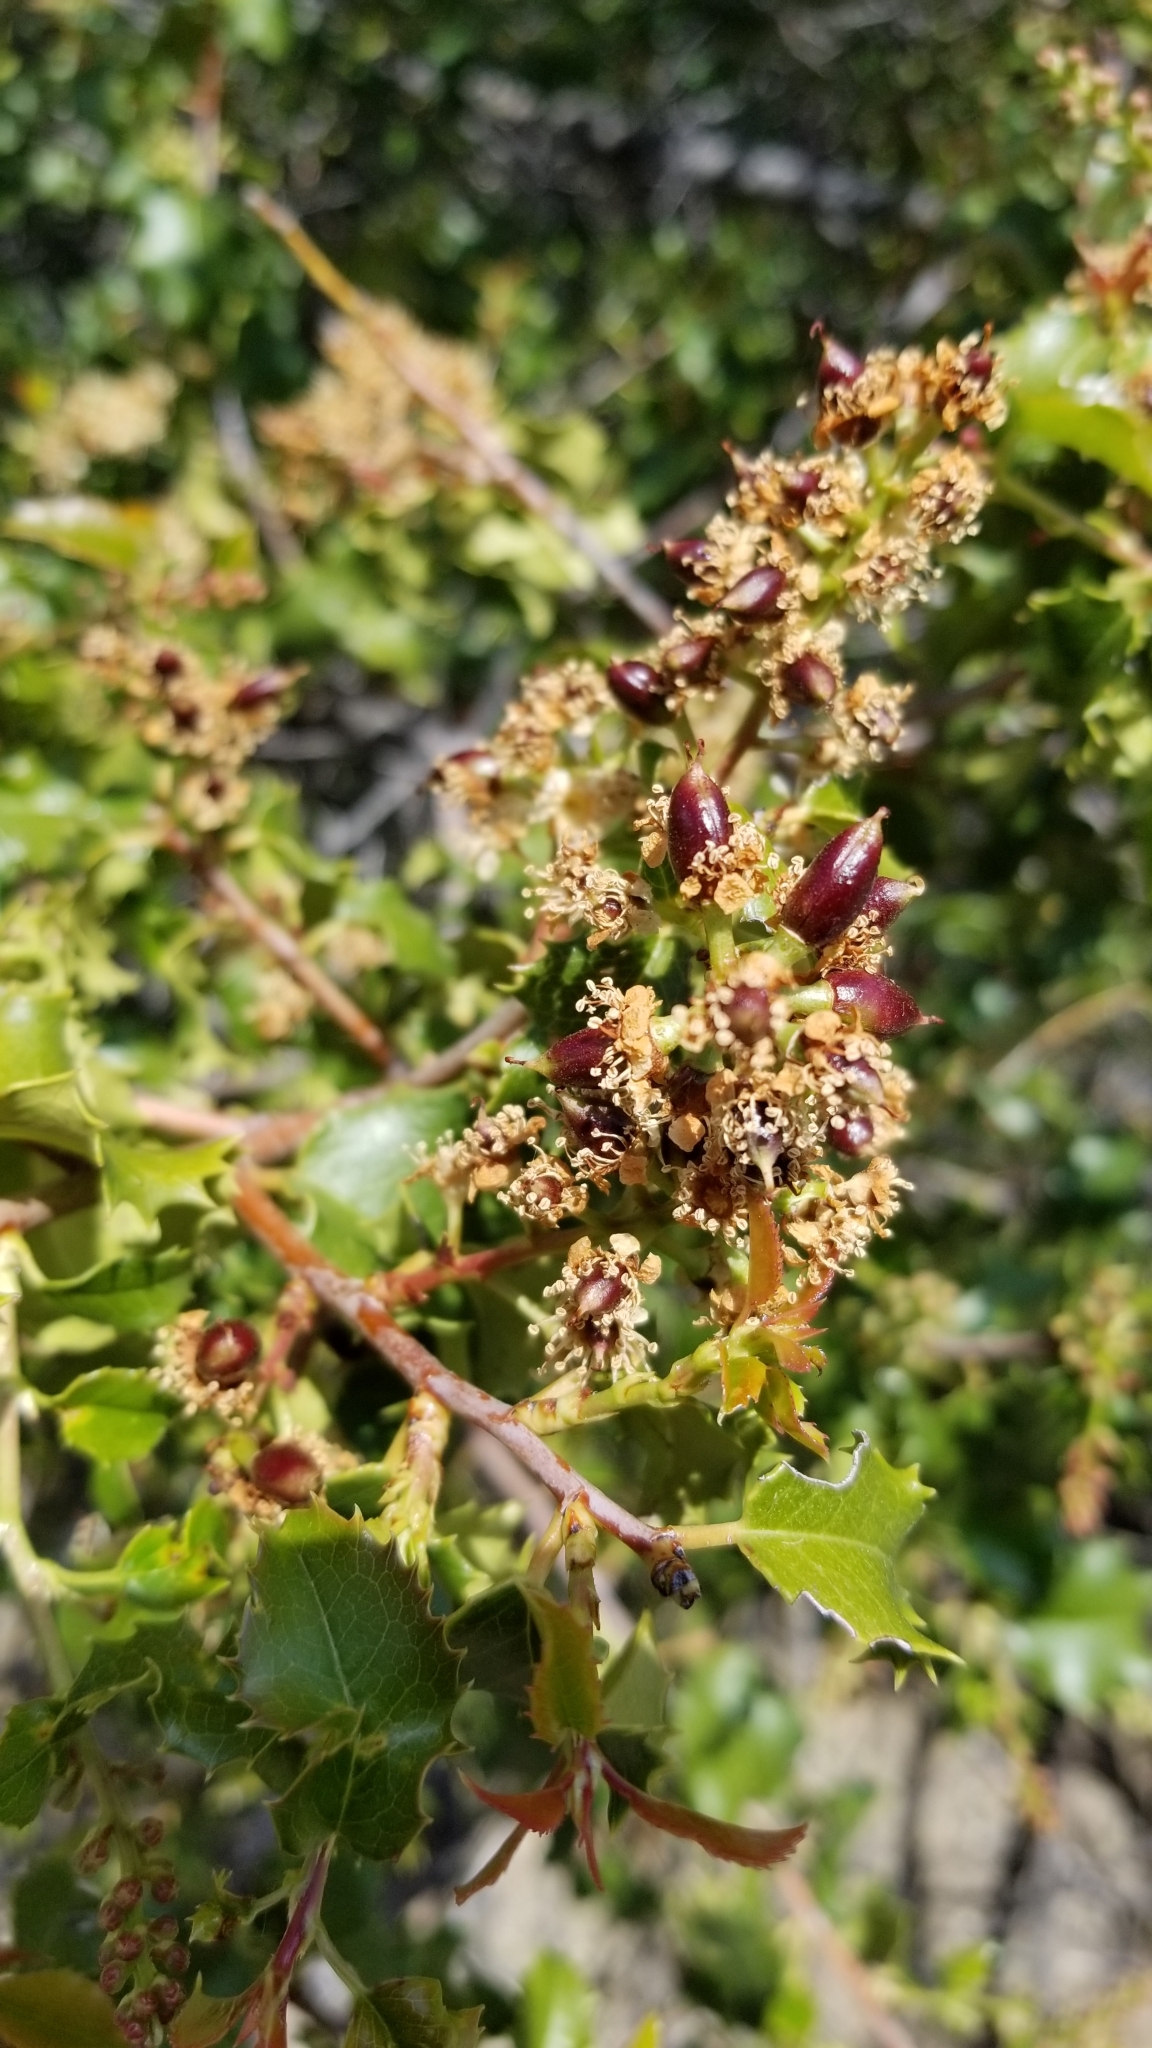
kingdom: Plantae
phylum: Tracheophyta
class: Magnoliopsida
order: Rosales
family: Rosaceae
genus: Prunus
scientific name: Prunus ilicifolia
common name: Hollyleaf cherry
